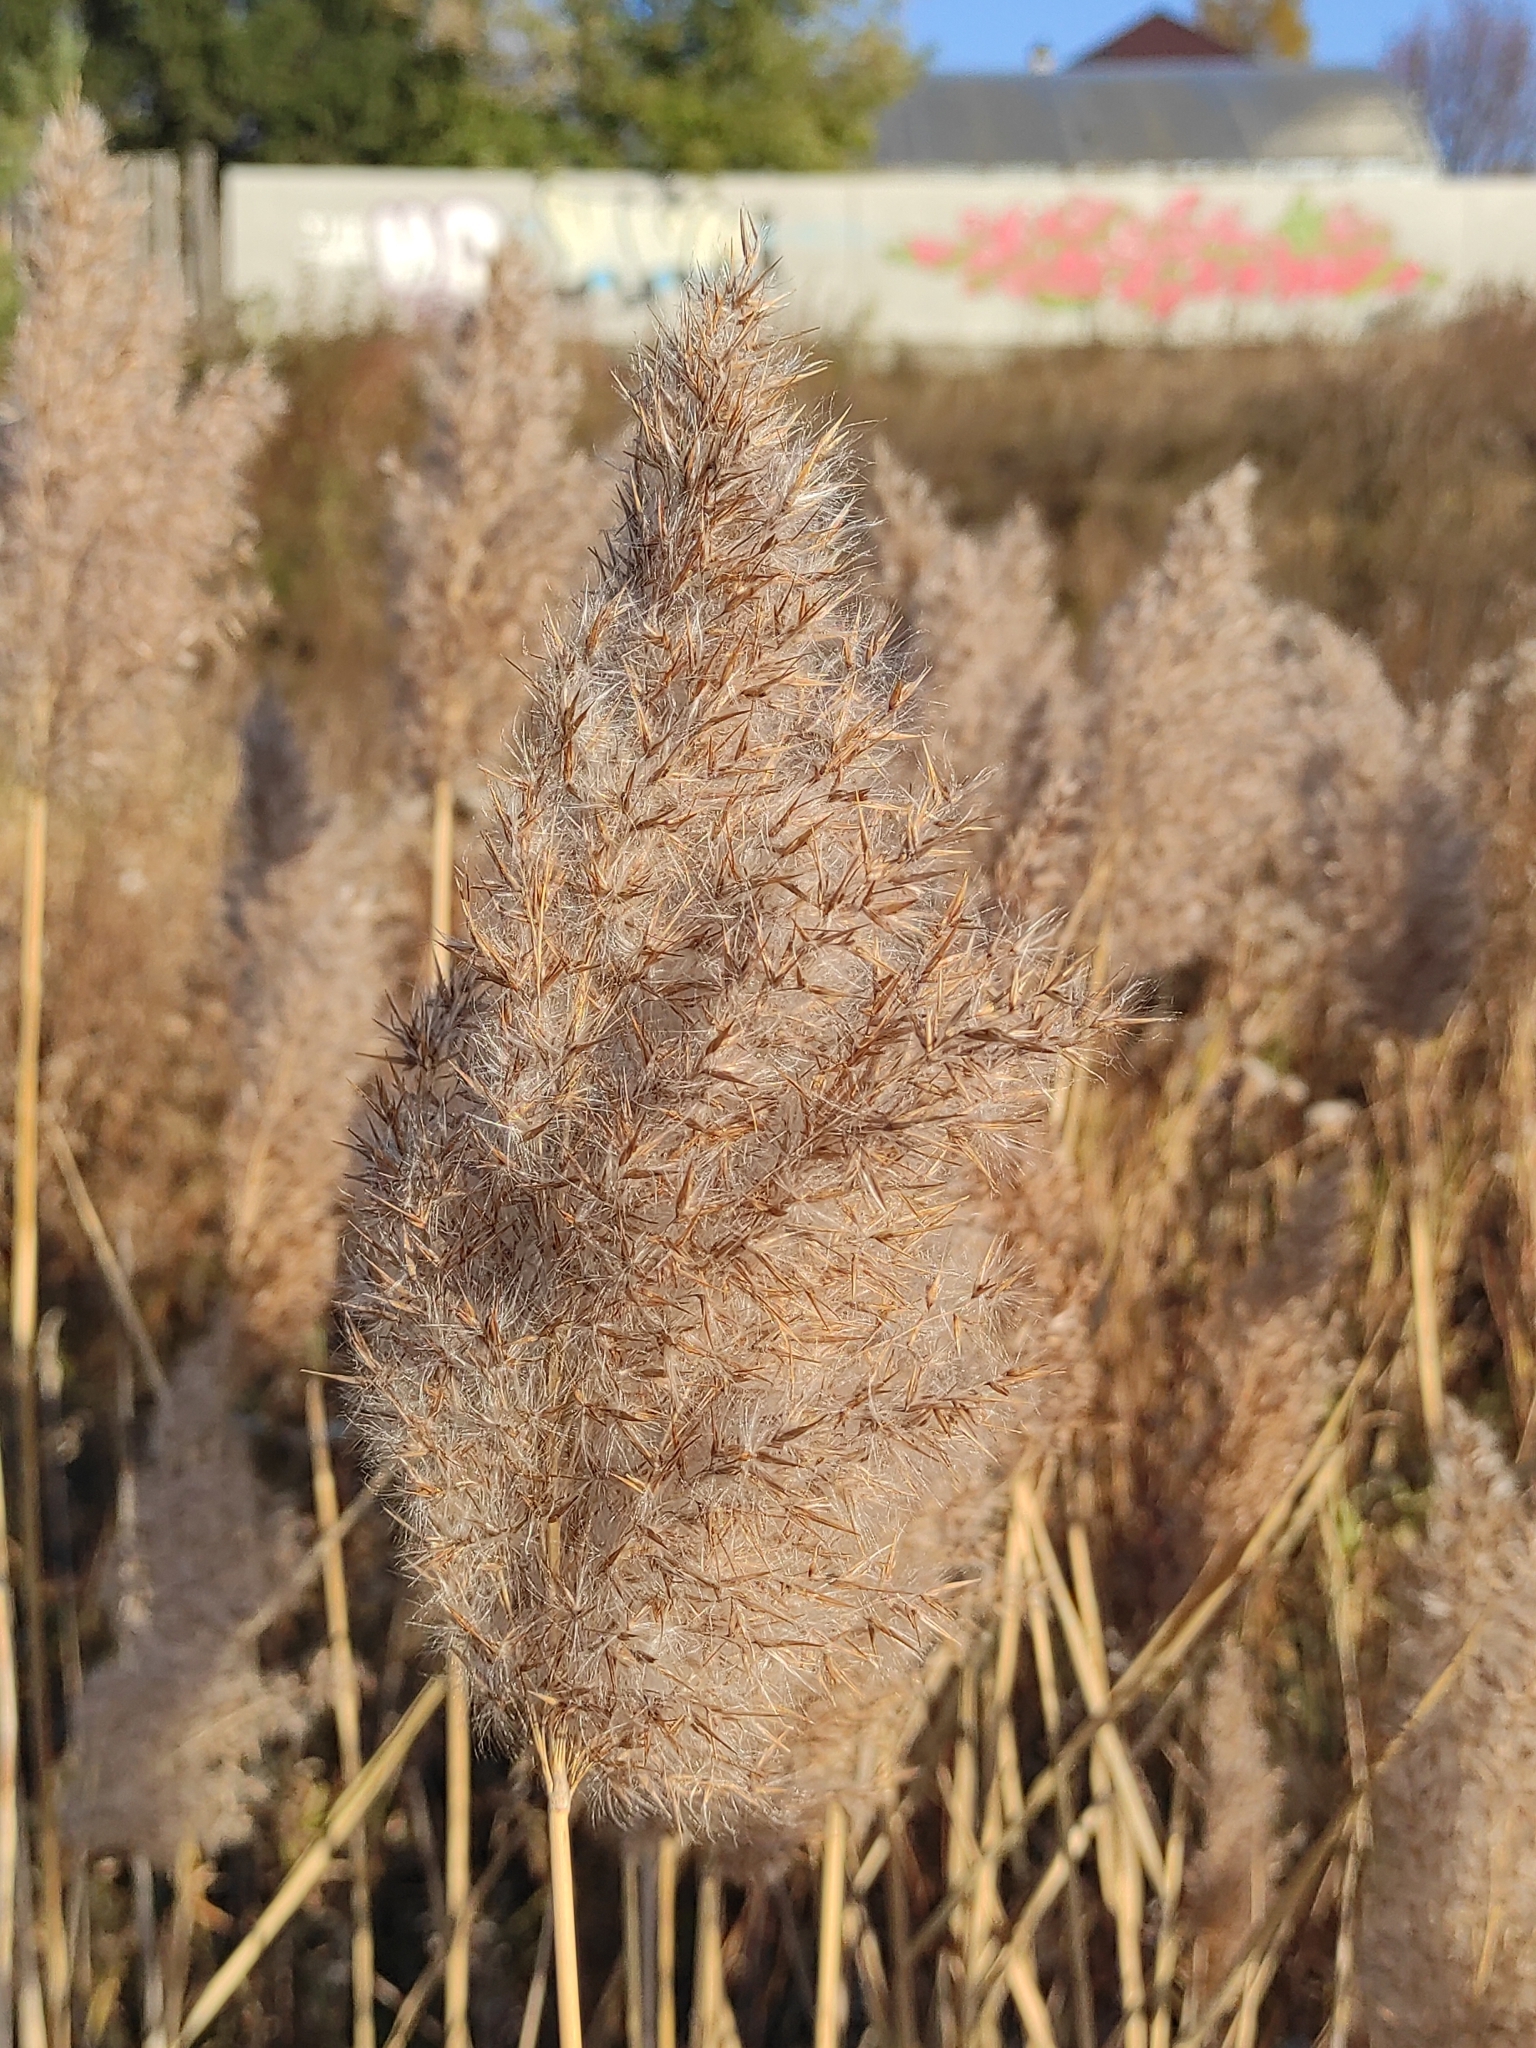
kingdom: Plantae
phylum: Tracheophyta
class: Liliopsida
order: Poales
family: Poaceae
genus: Phragmites
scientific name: Phragmites australis
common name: Common reed
